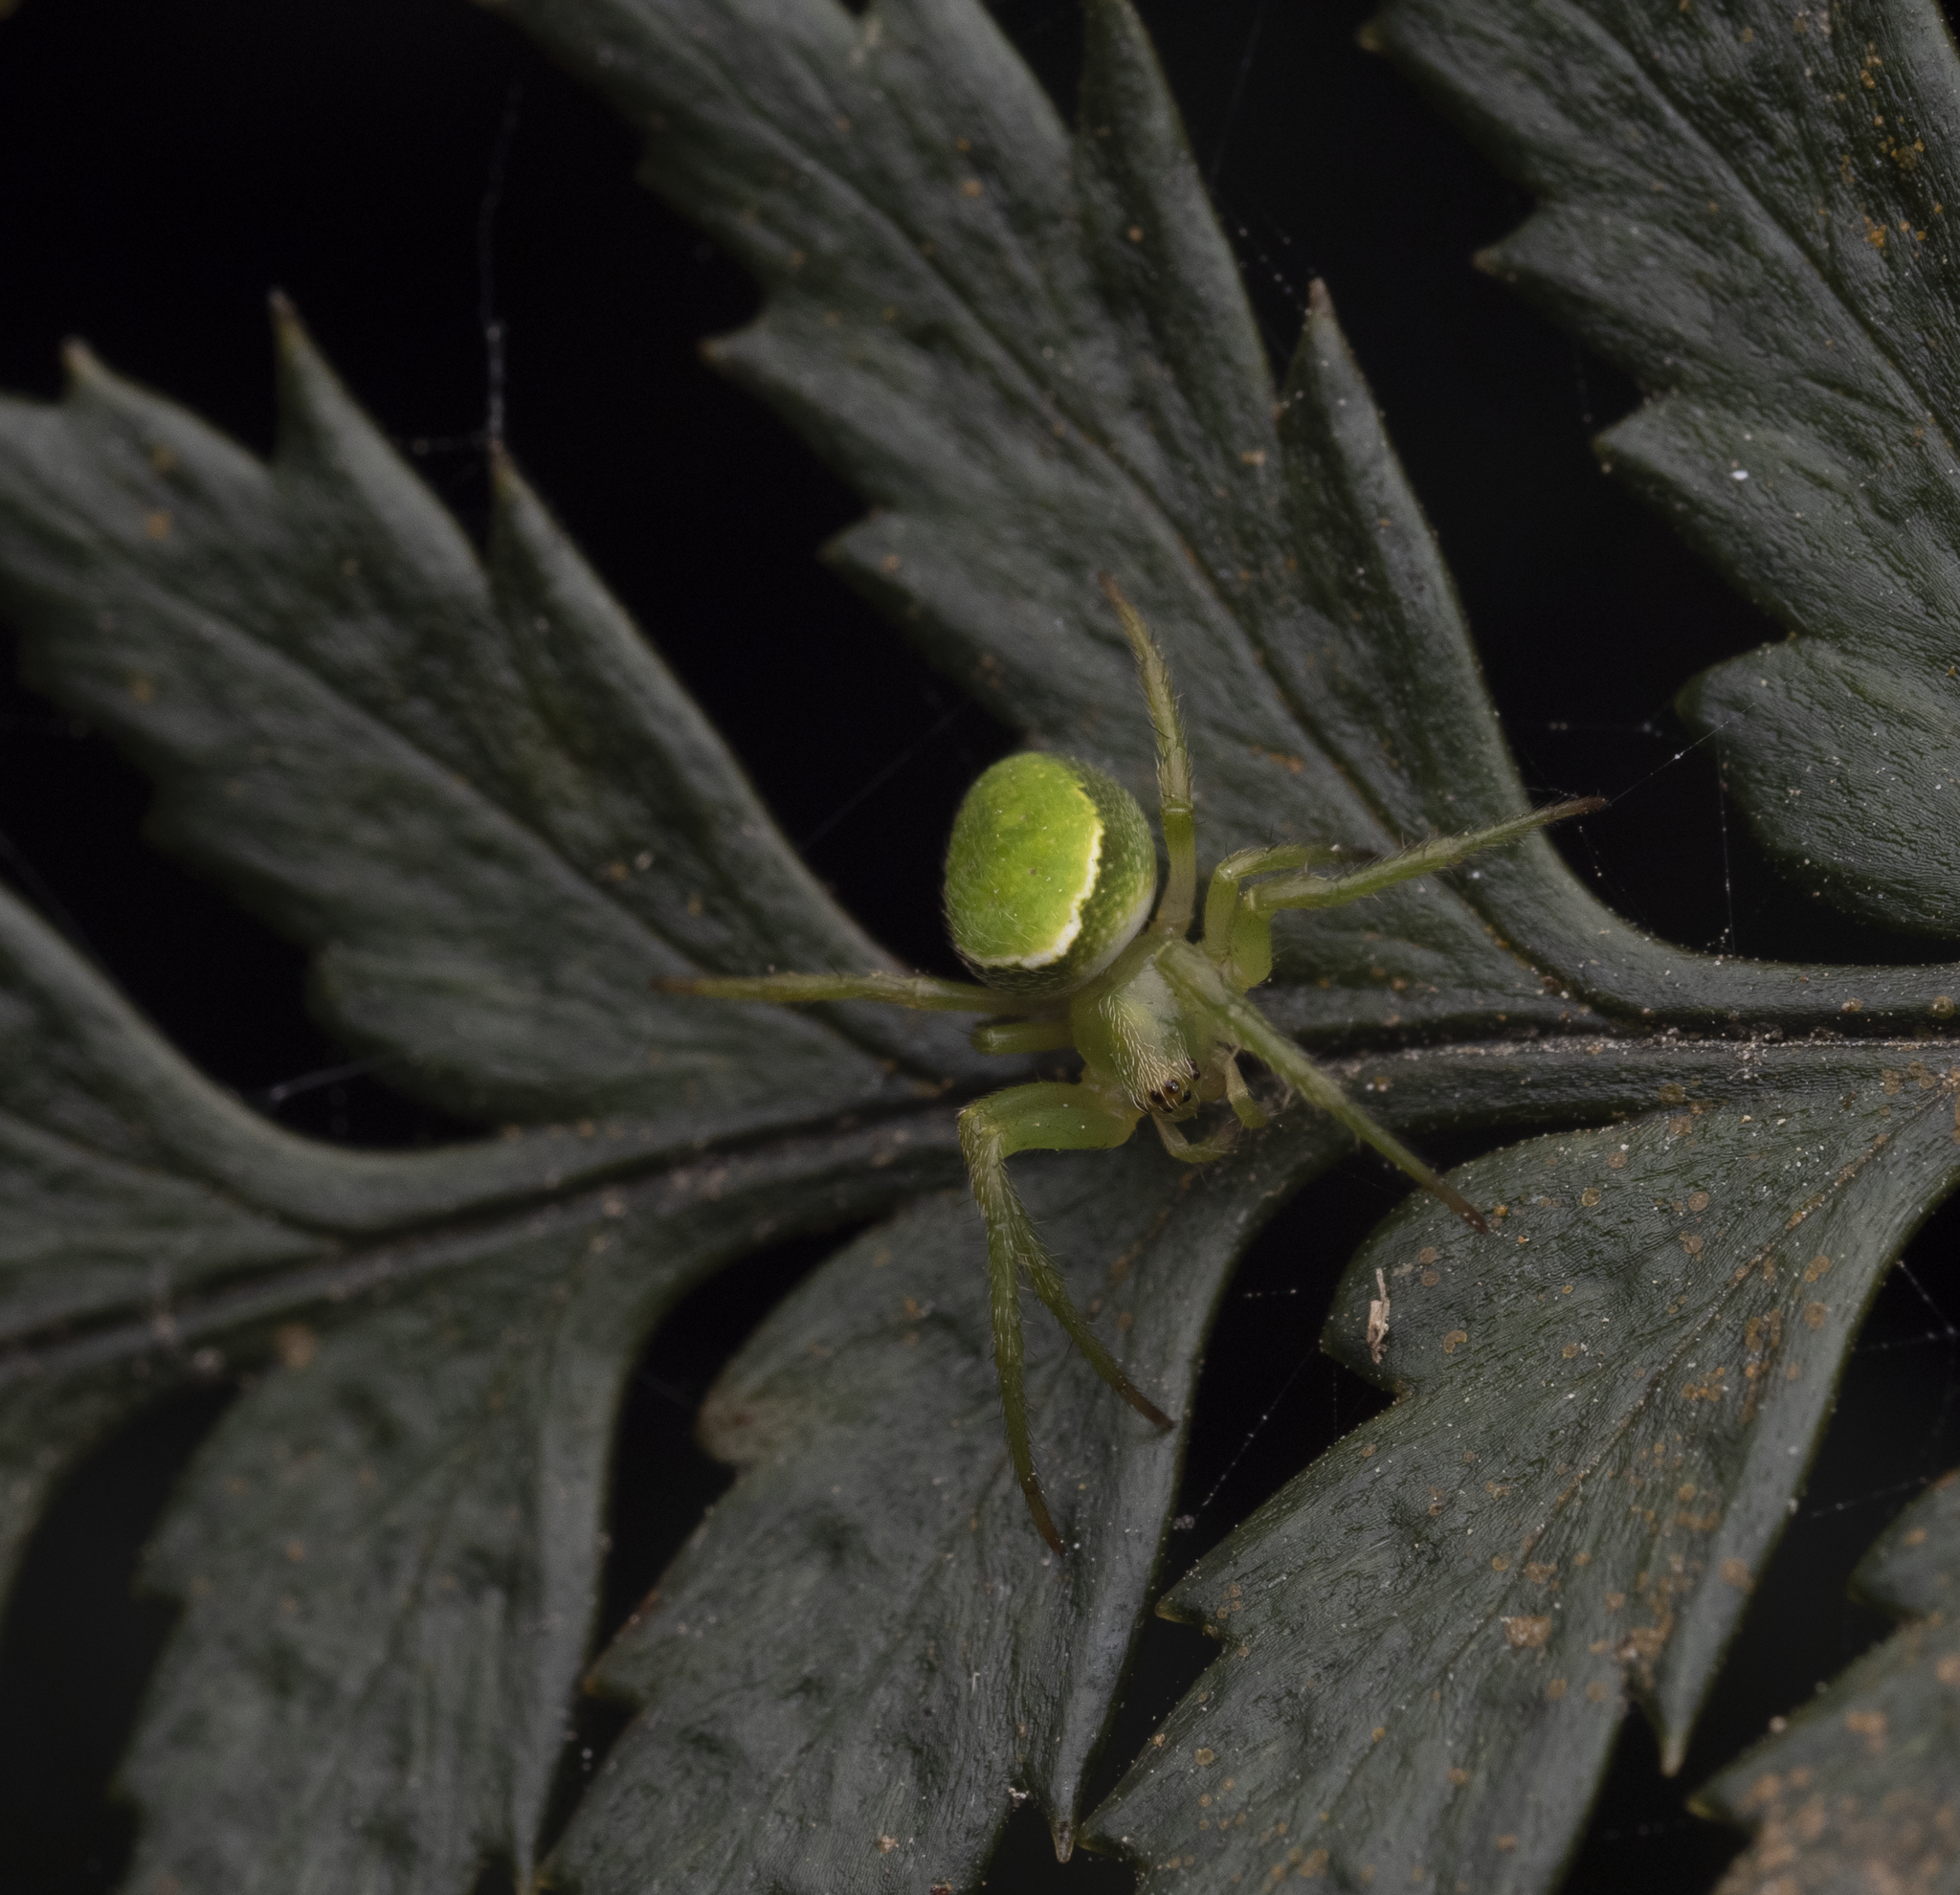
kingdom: Animalia
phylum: Arthropoda
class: Arachnida
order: Araneae
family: Araneidae
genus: Colaranea
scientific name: Colaranea viriditas
